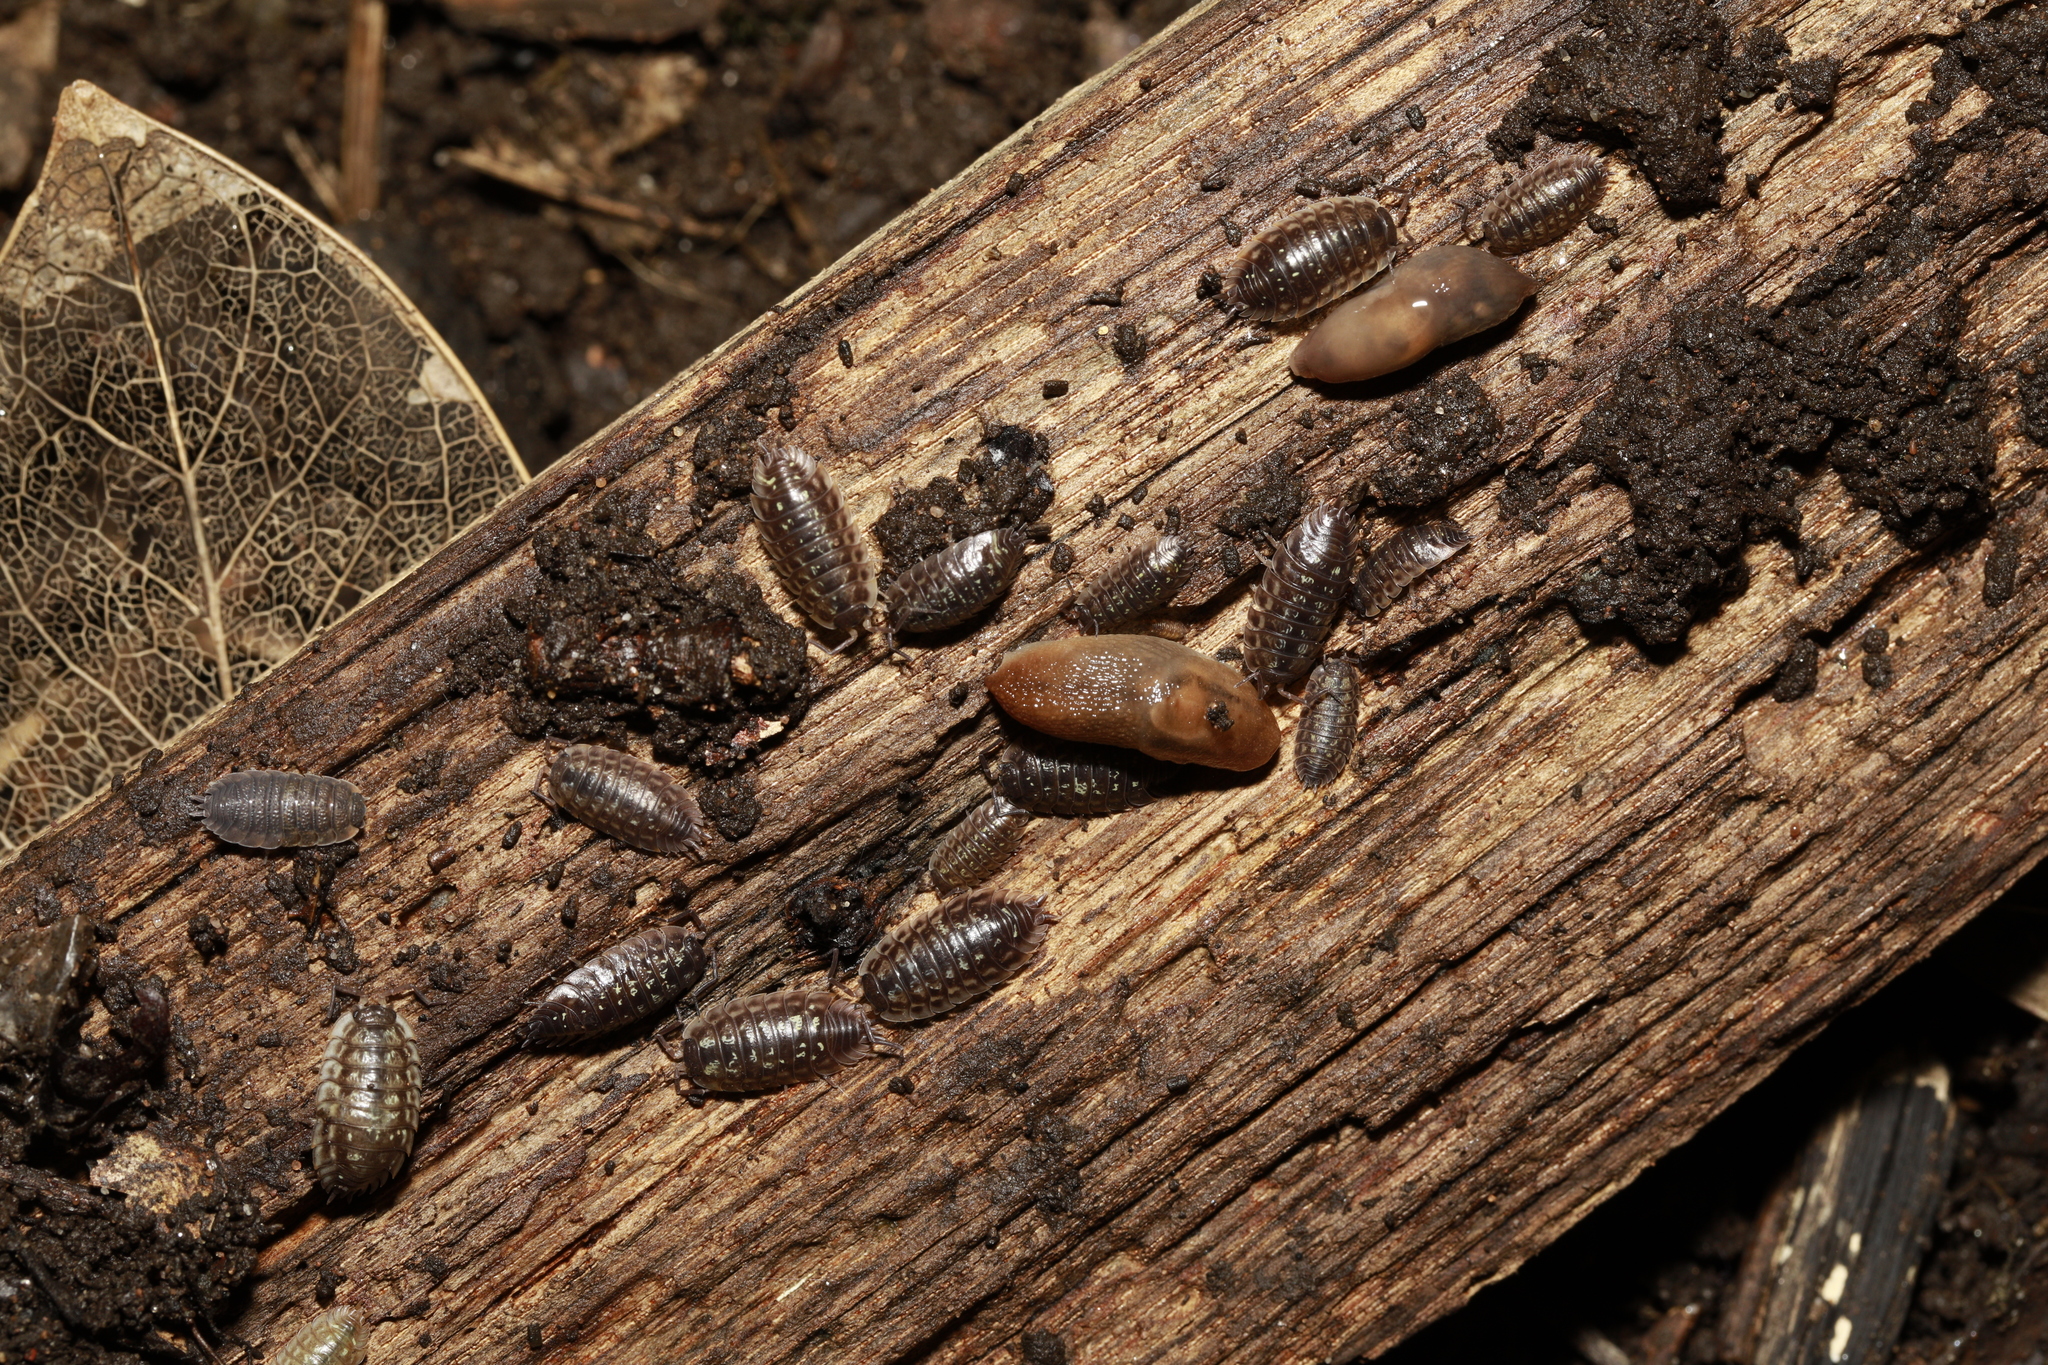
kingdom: Animalia
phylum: Arthropoda
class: Malacostraca
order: Isopoda
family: Oniscidae
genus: Oniscus
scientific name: Oniscus asellus
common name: Common shiny woodlouse
